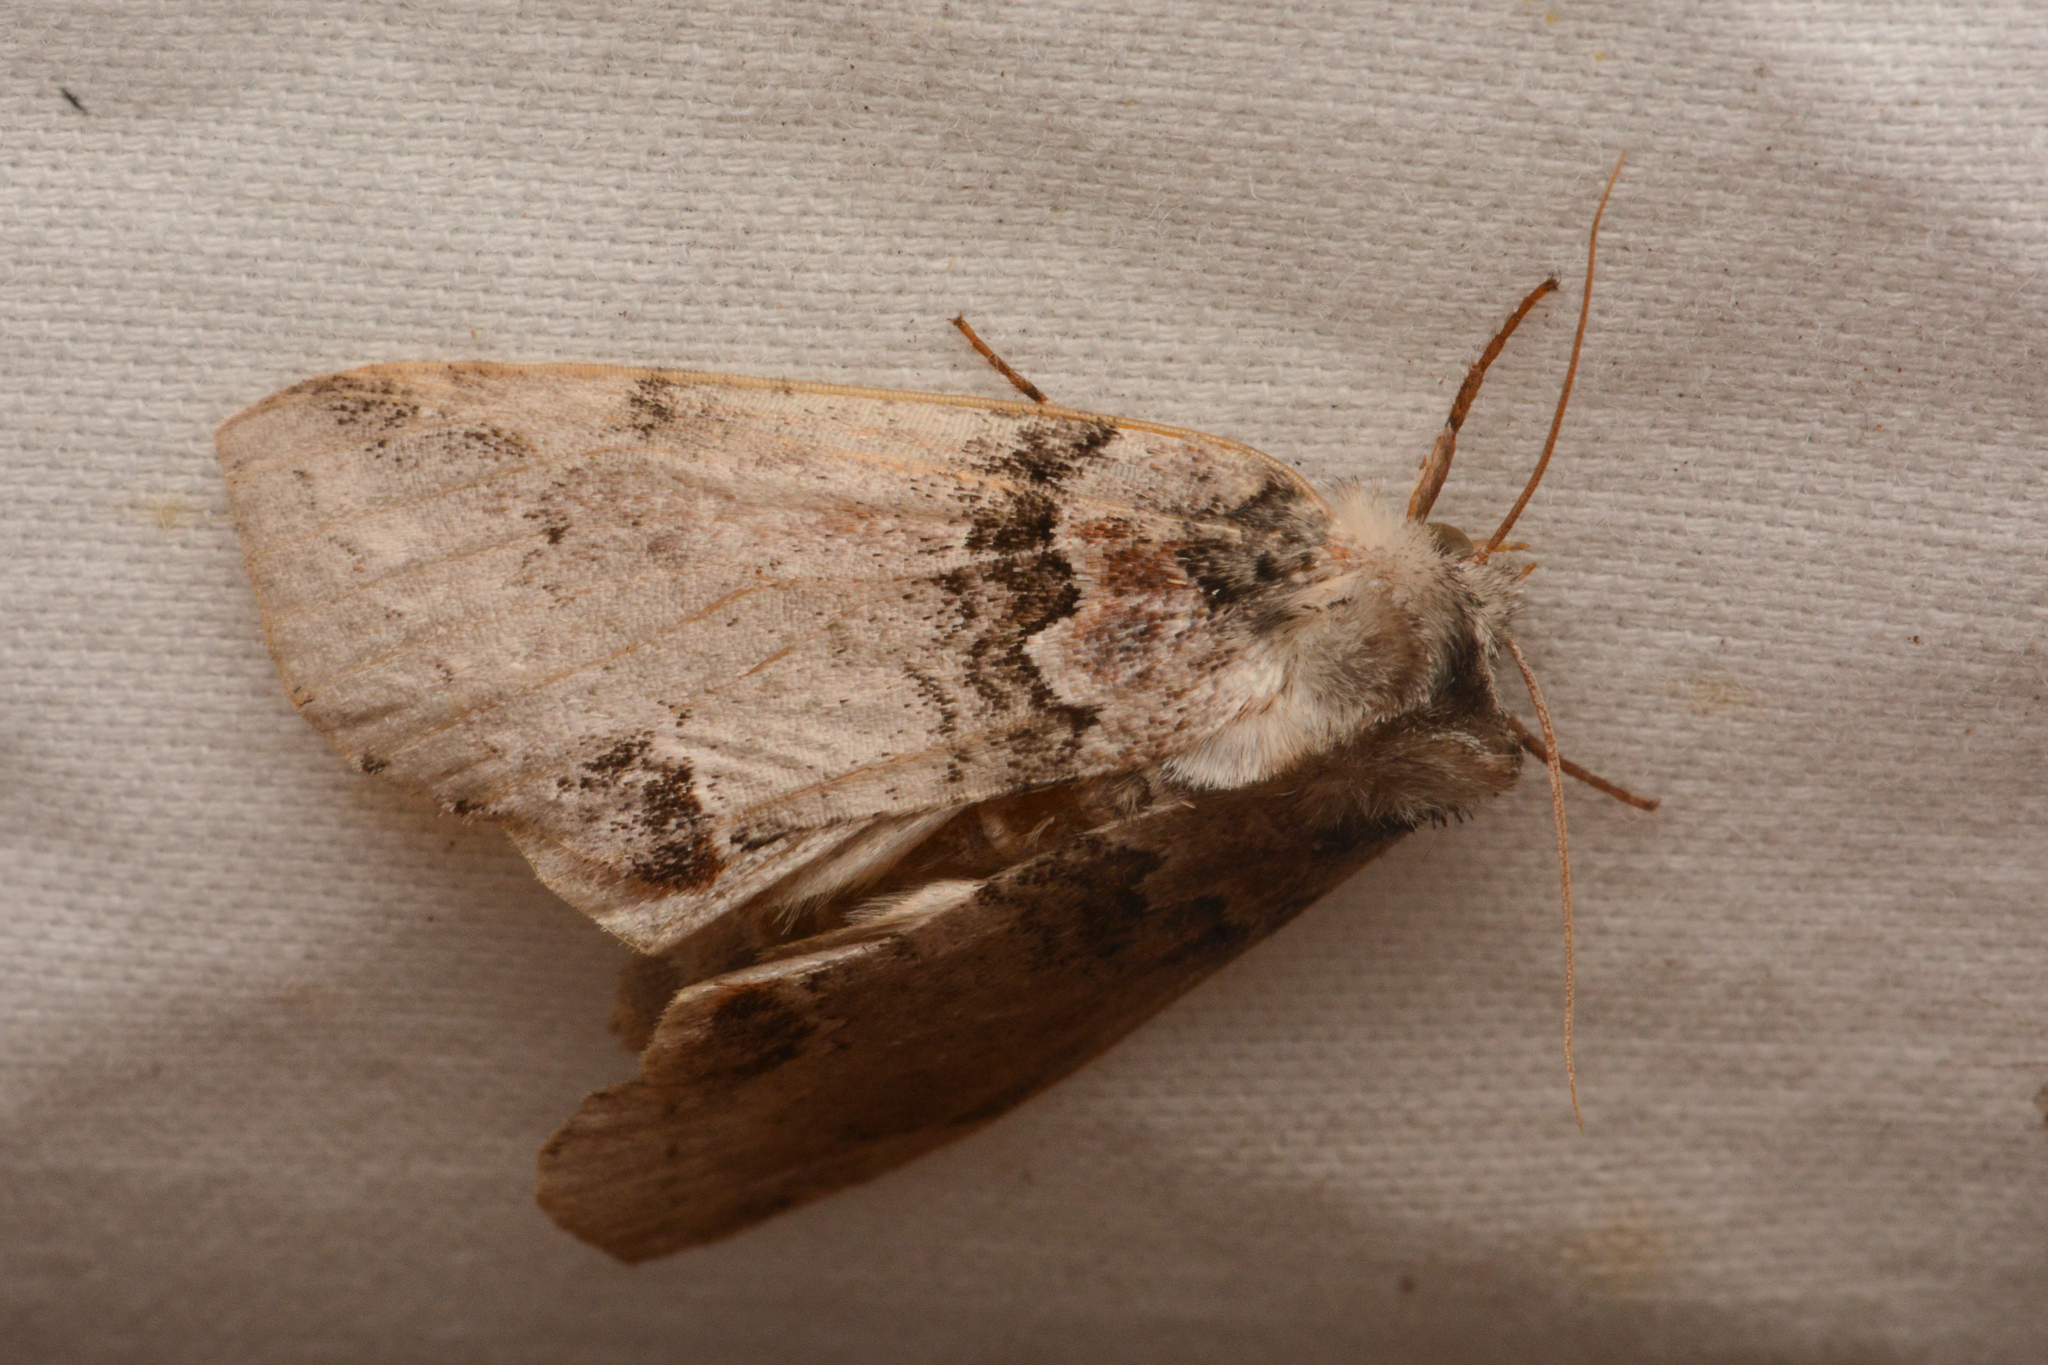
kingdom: Animalia
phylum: Arthropoda
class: Insecta
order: Lepidoptera
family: Drepanidae
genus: Pseudothyatira
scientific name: Pseudothyatira cymatophoroides
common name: Tufted thyatirid moth
